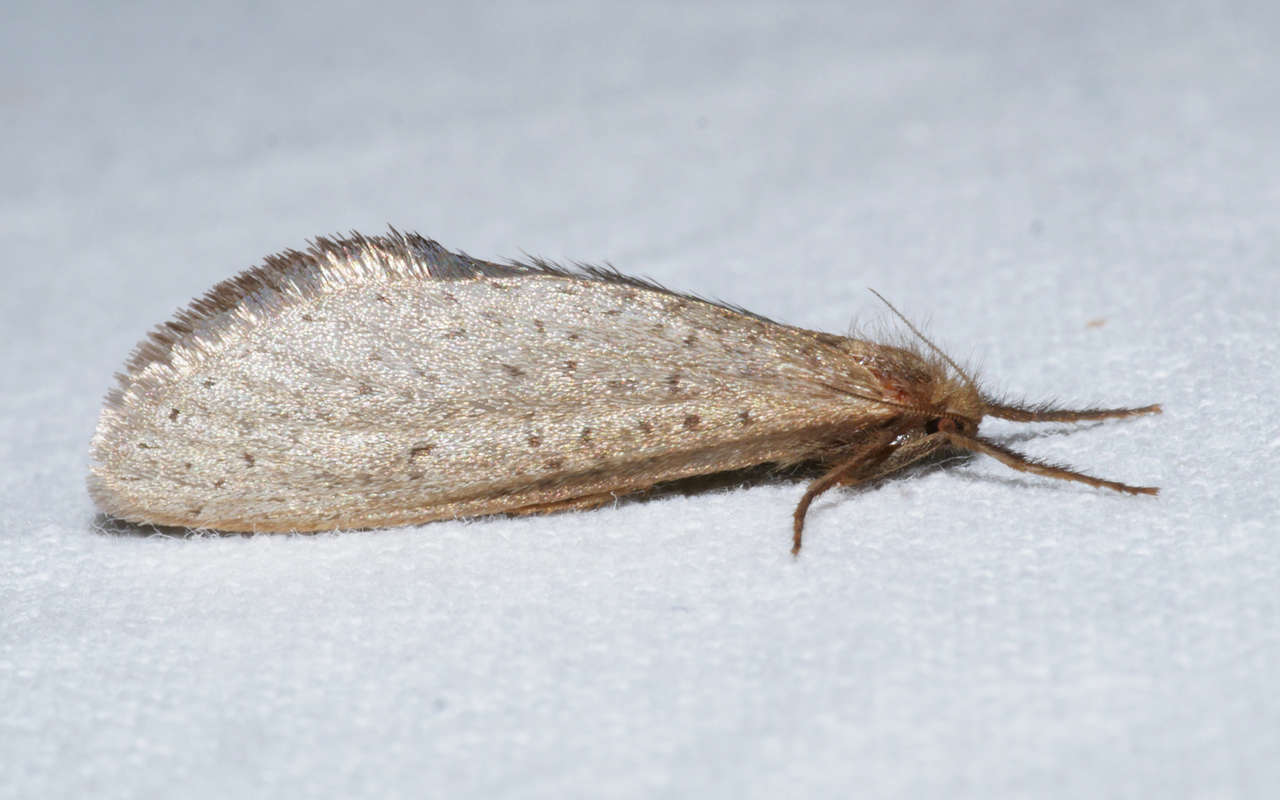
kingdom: Animalia
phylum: Arthropoda
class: Insecta
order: Lepidoptera
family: Hepialidae
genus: Fraus
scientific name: Fraus pteromela
